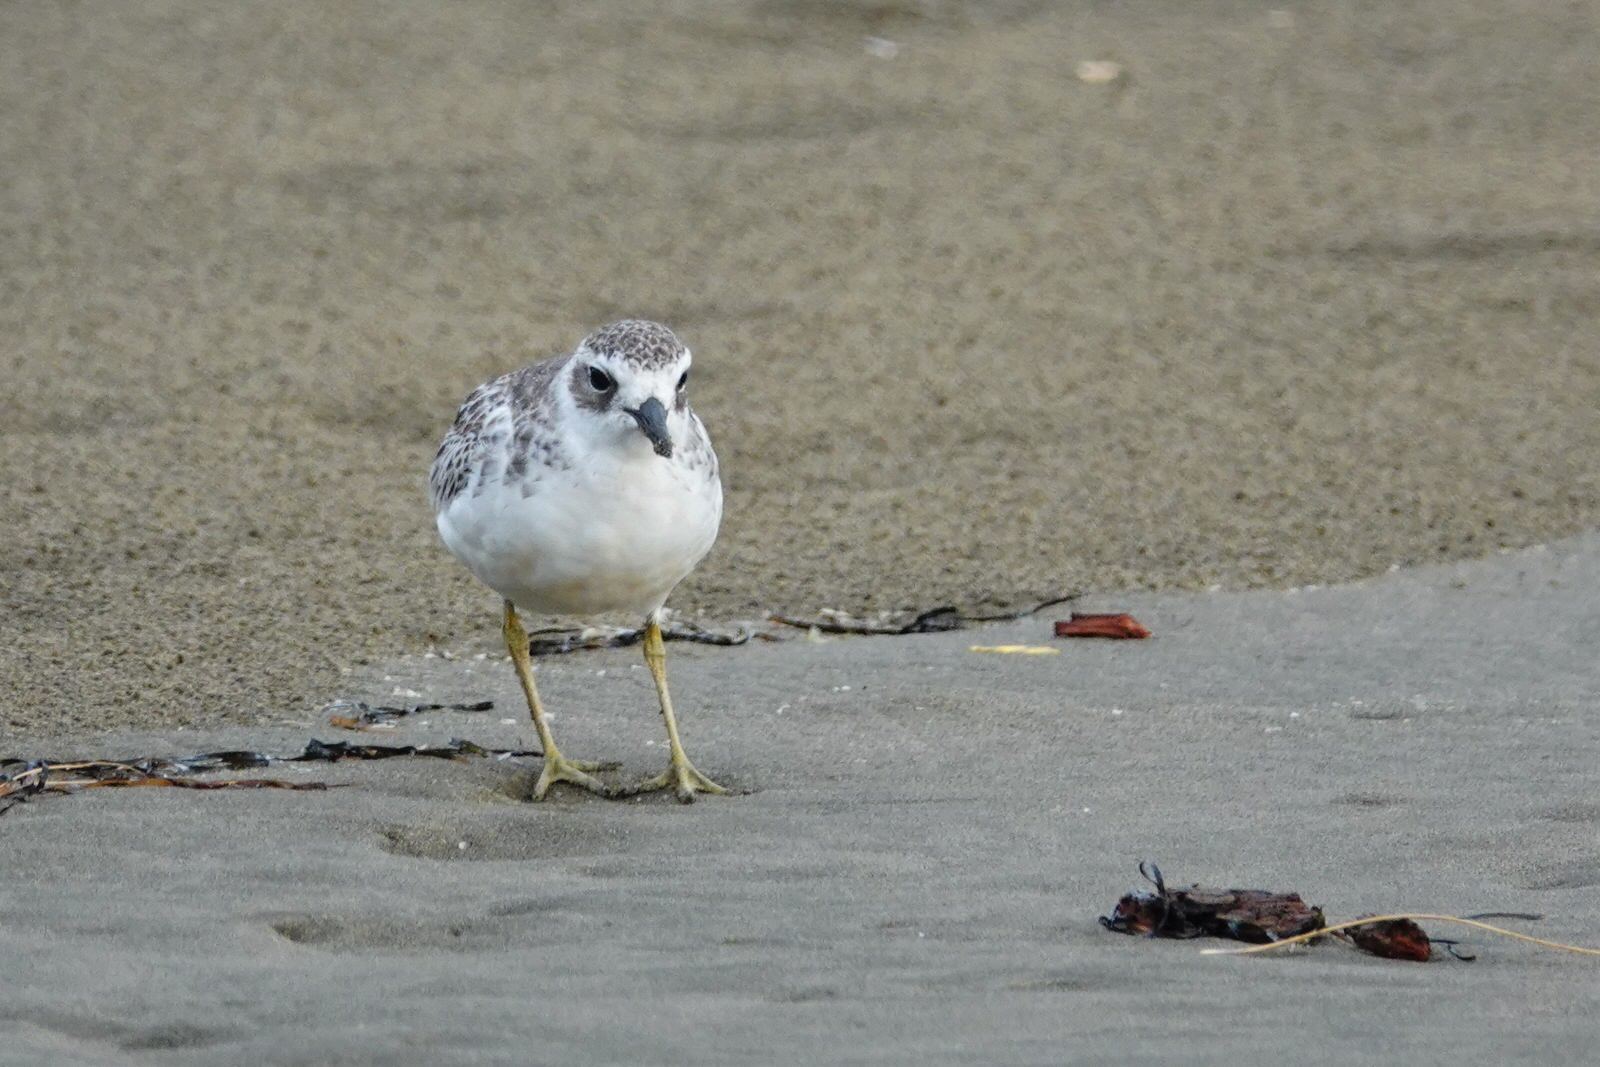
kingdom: Animalia
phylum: Chordata
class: Aves
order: Charadriiformes
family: Charadriidae
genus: Anarhynchus
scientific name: Anarhynchus
